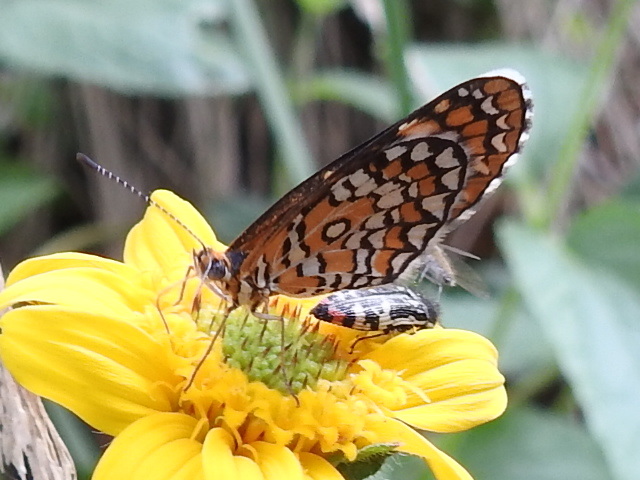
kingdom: Animalia
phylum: Arthropoda
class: Insecta
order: Lepidoptera
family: Nymphalidae
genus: Dymasia
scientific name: Dymasia dymas
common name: Tiny checkerspot
